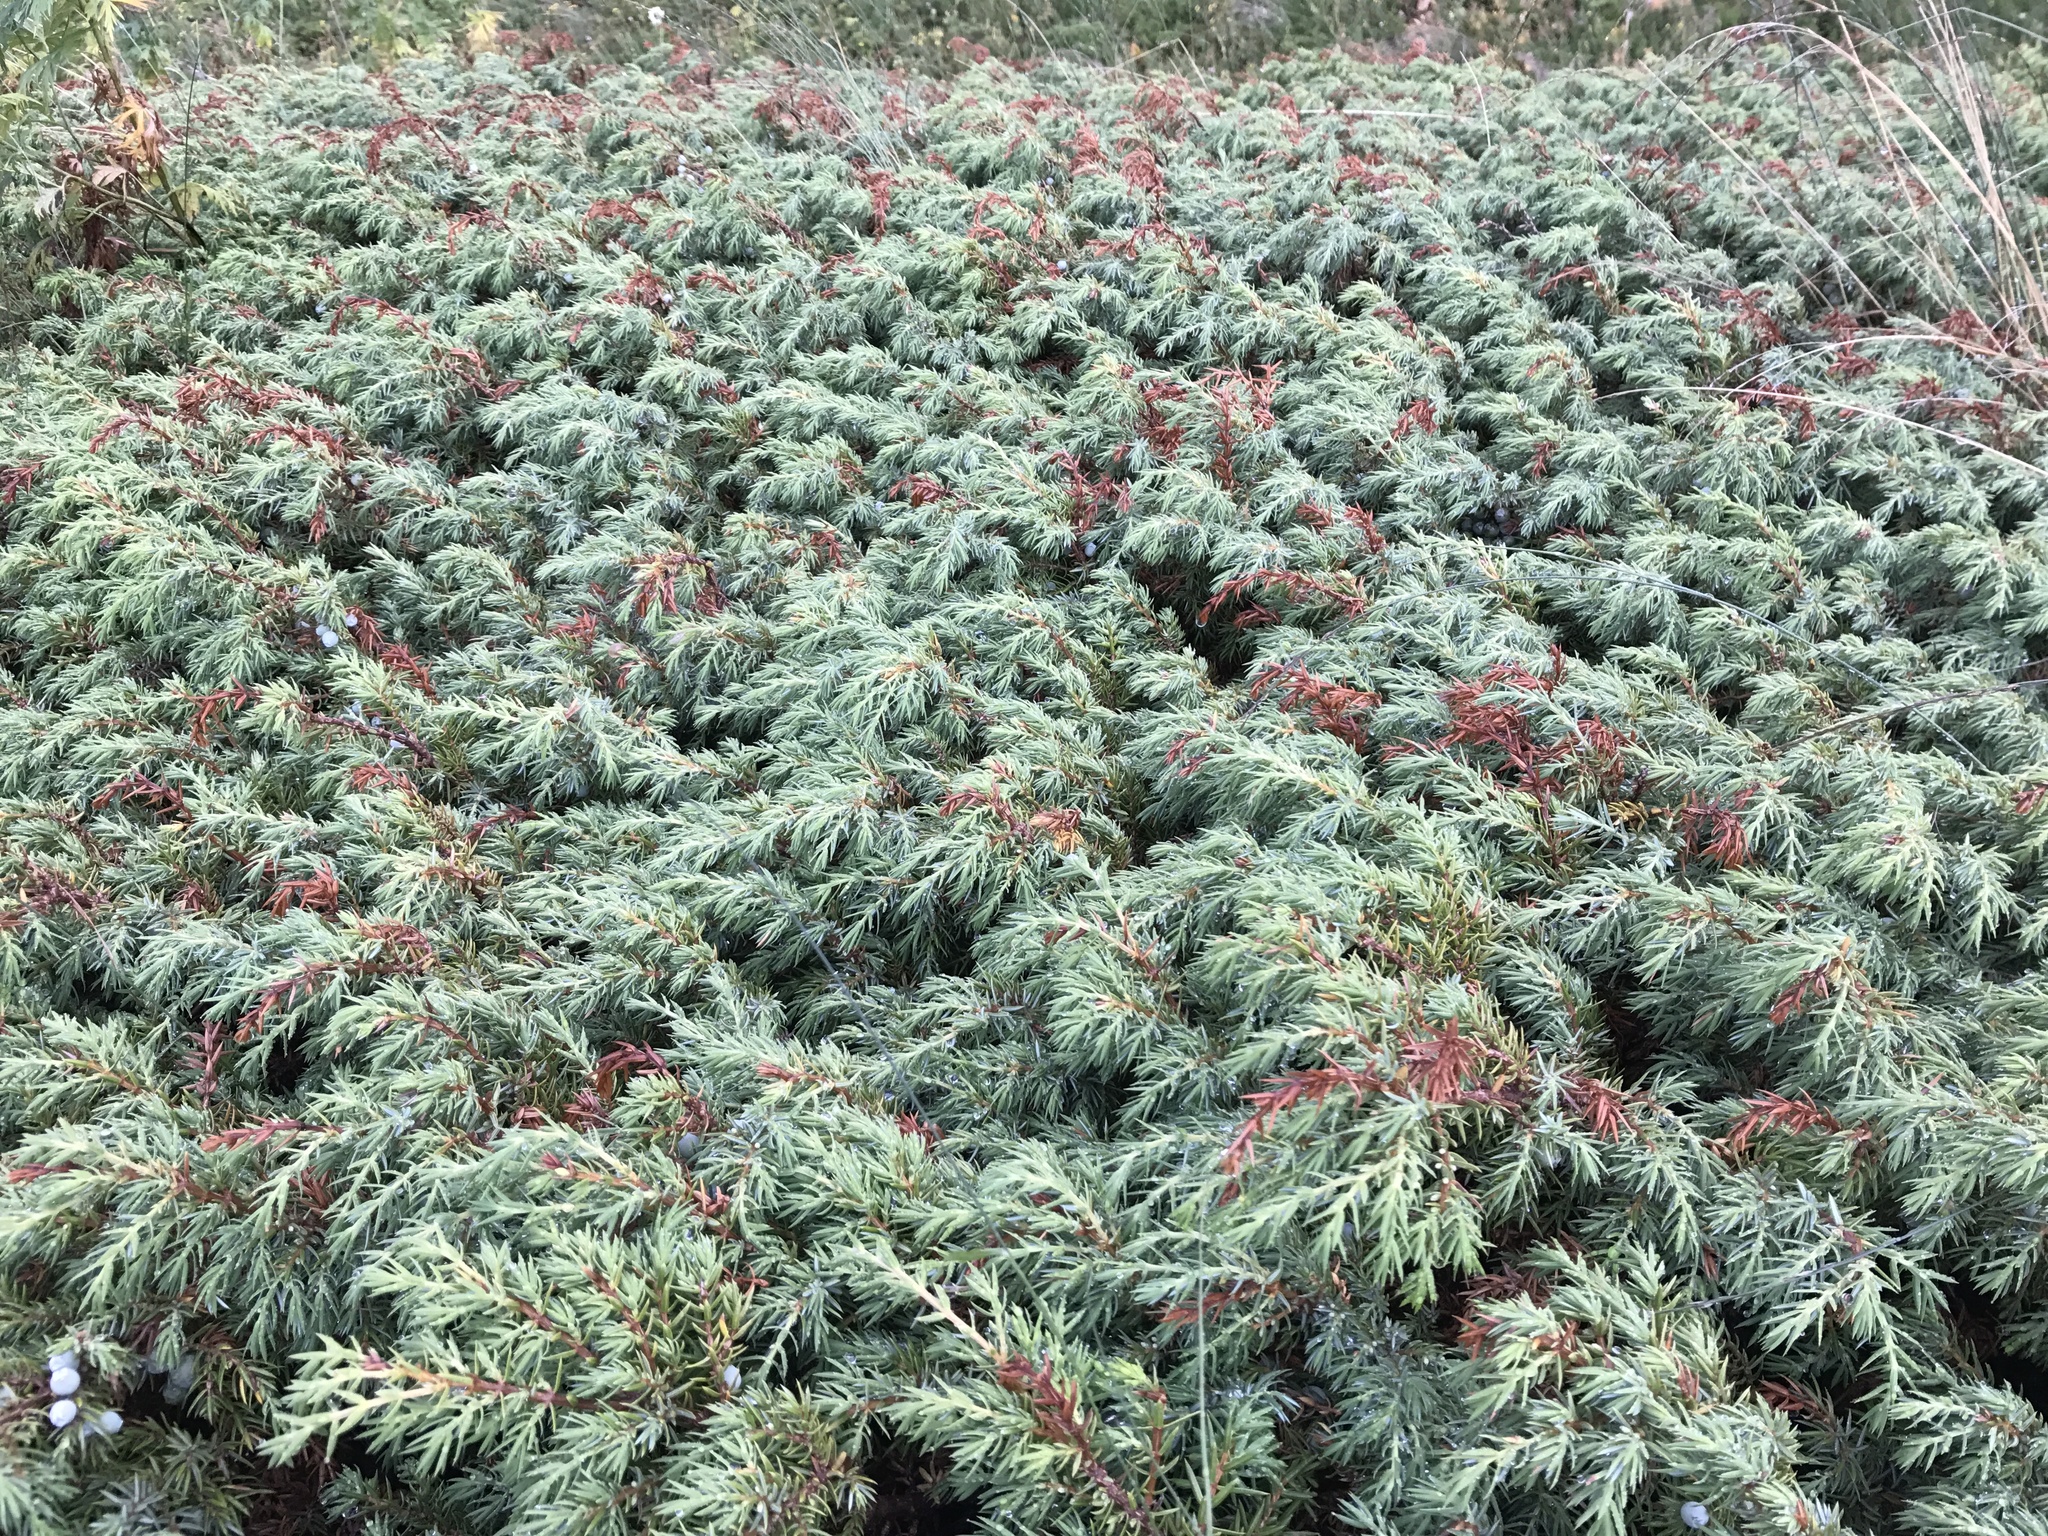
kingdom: Plantae
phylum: Tracheophyta
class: Pinopsida
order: Pinales
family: Cupressaceae
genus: Juniperus
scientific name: Juniperus communis
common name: Common juniper
